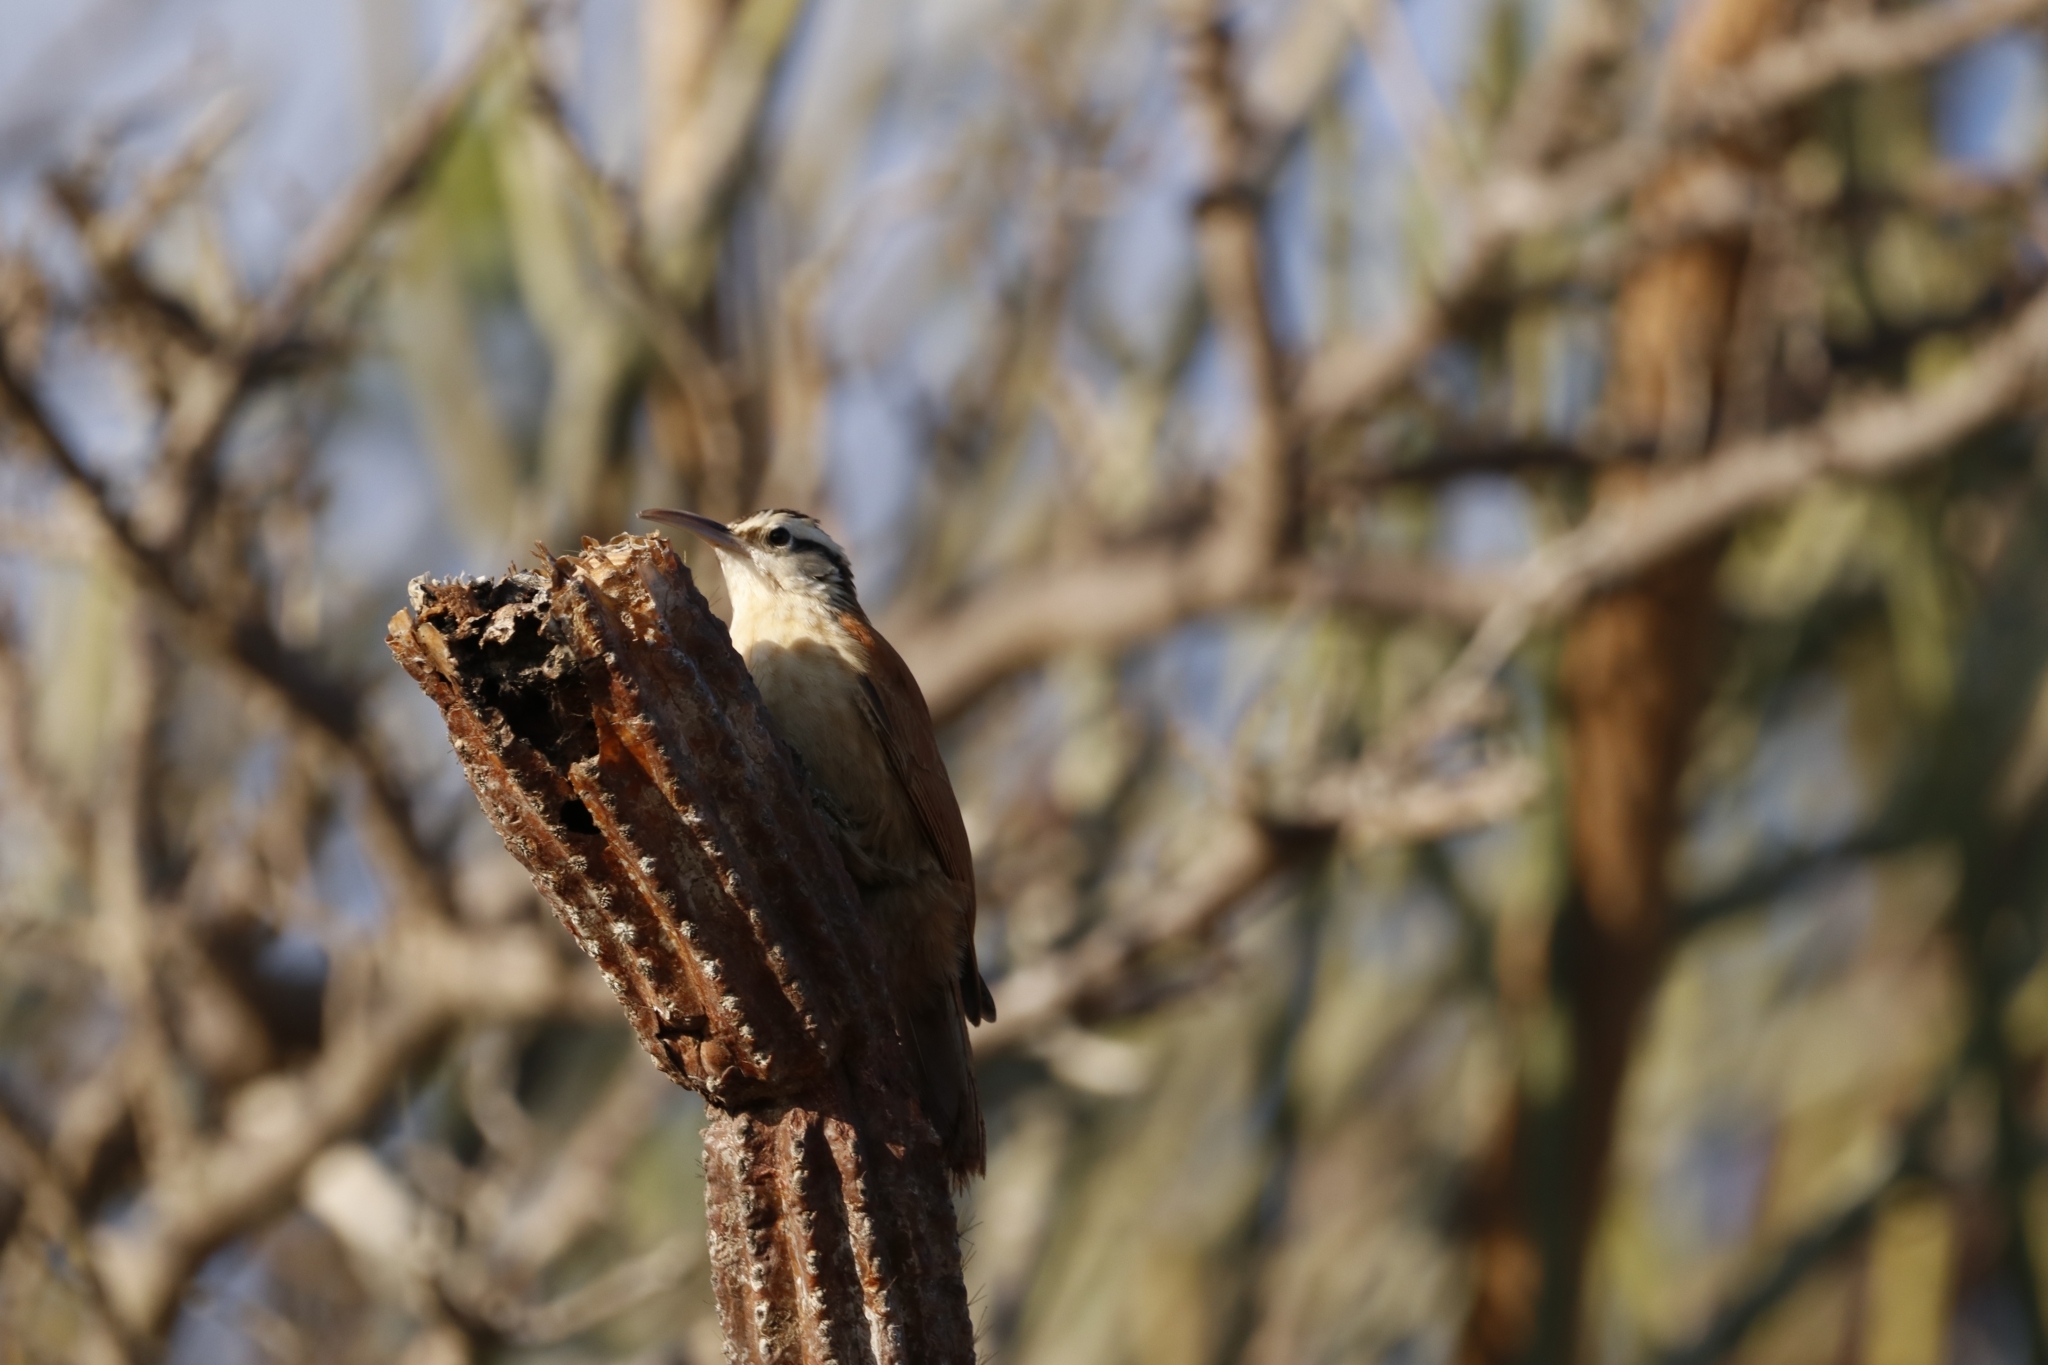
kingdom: Animalia
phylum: Chordata
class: Aves
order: Passeriformes
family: Furnariidae
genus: Lepidocolaptes
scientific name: Lepidocolaptes angustirostris
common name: Narrow-billed woodcreeper
